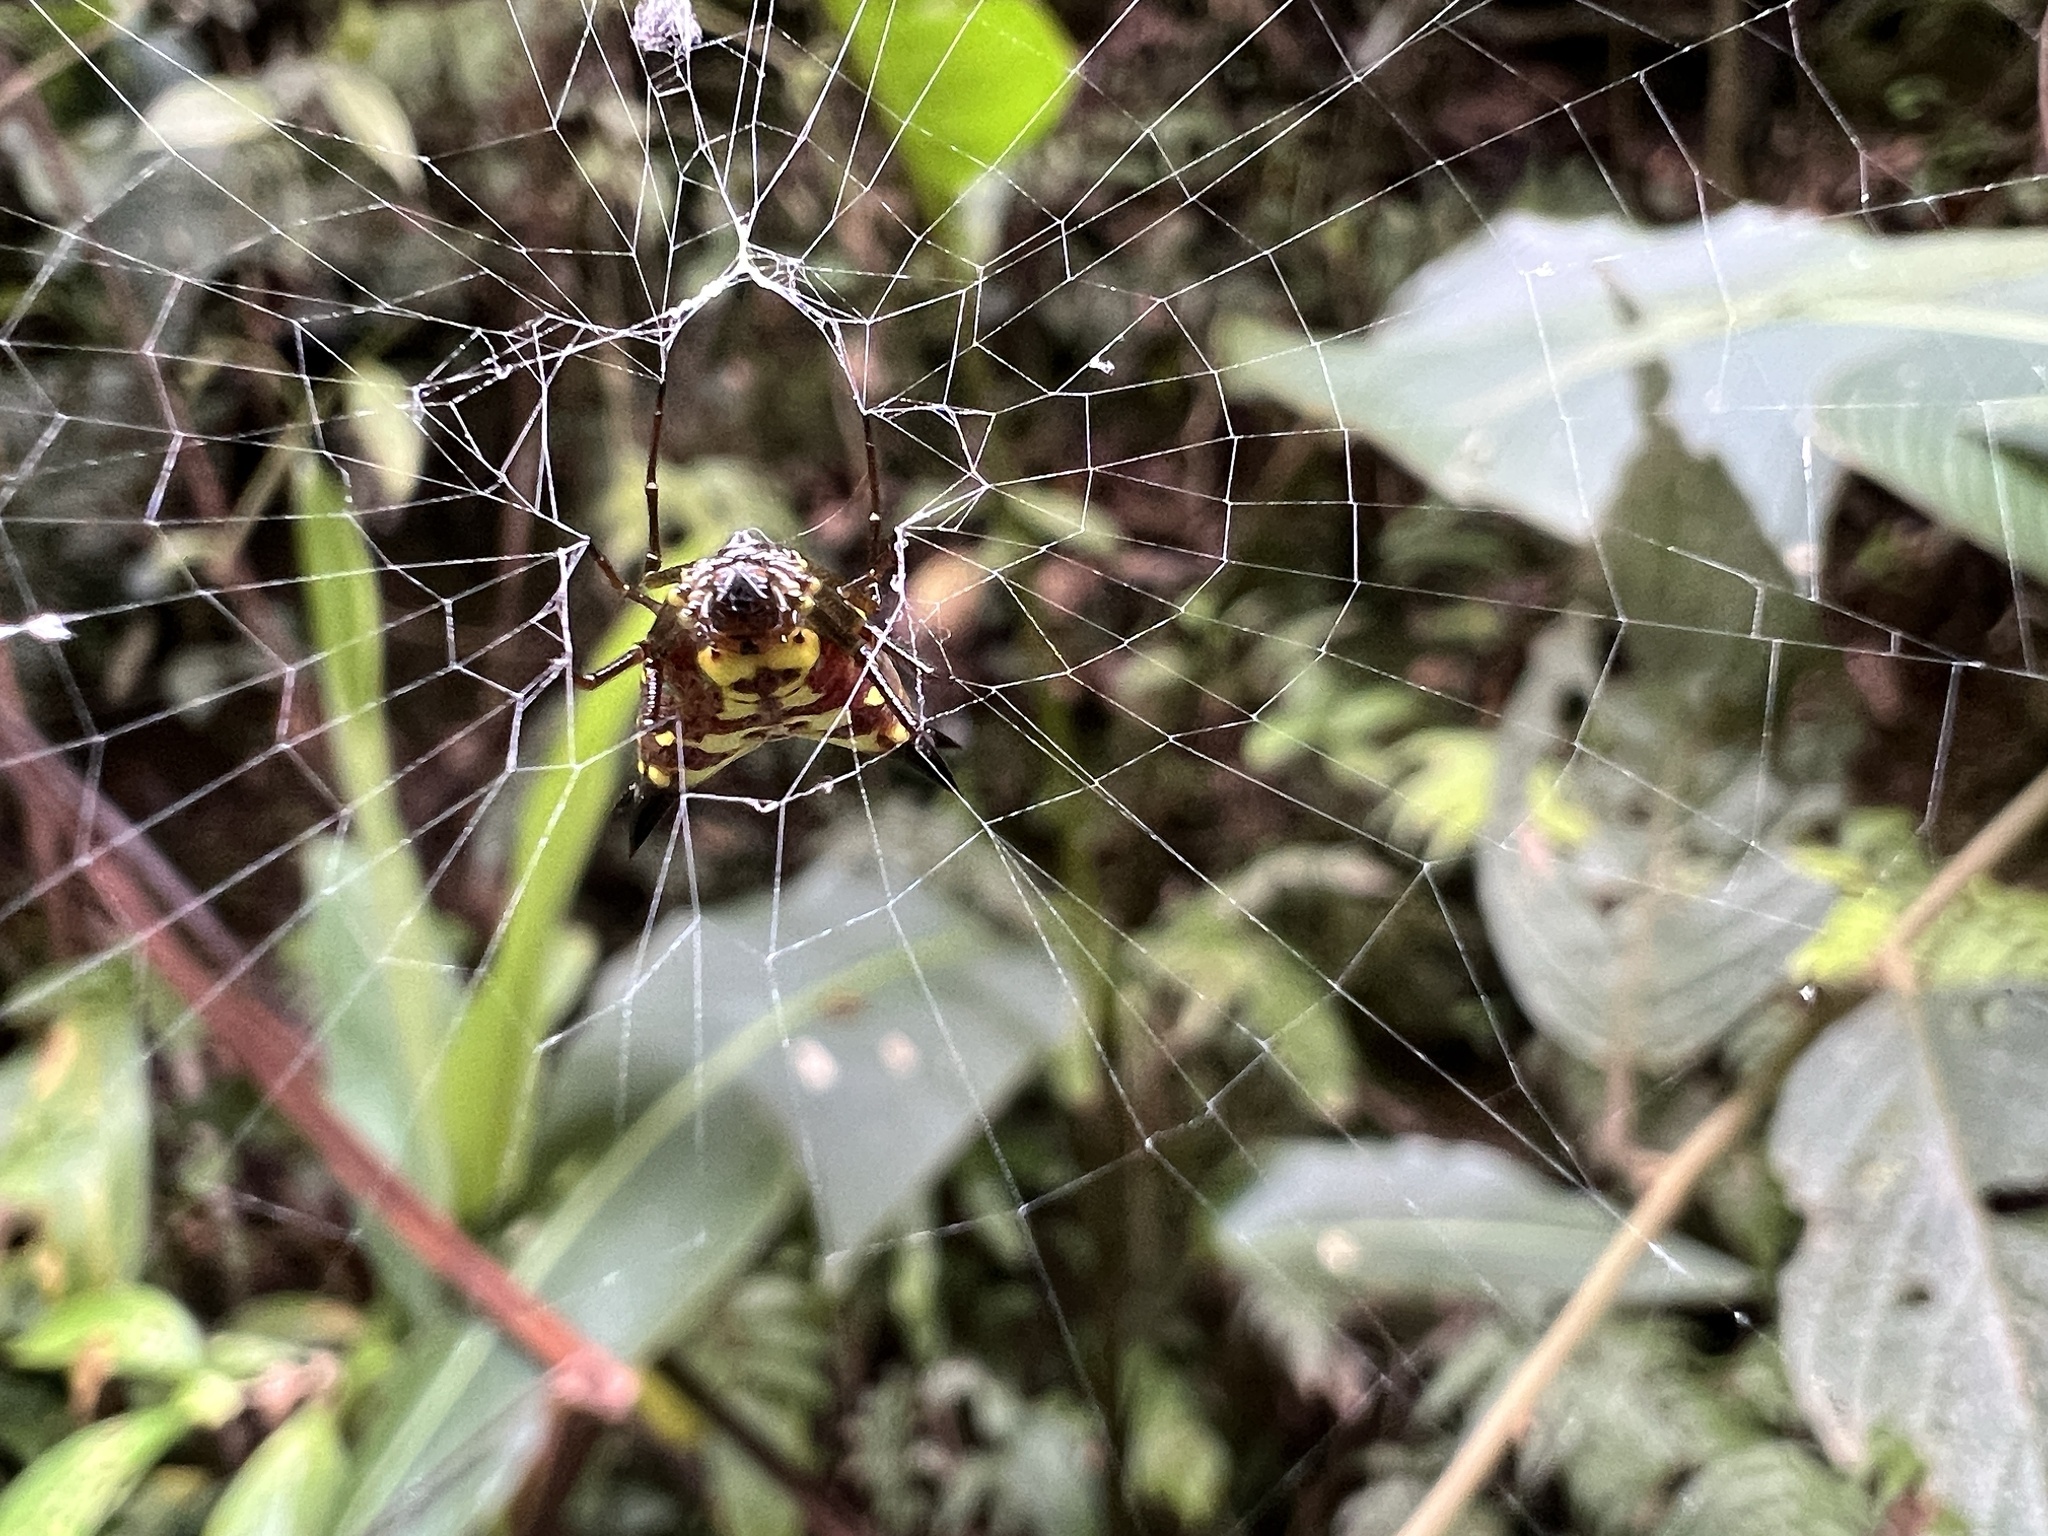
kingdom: Animalia
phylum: Arthropoda
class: Arachnida
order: Araneae
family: Araneidae
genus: Micrathena
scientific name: Micrathena lucasi
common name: Orb weavers
